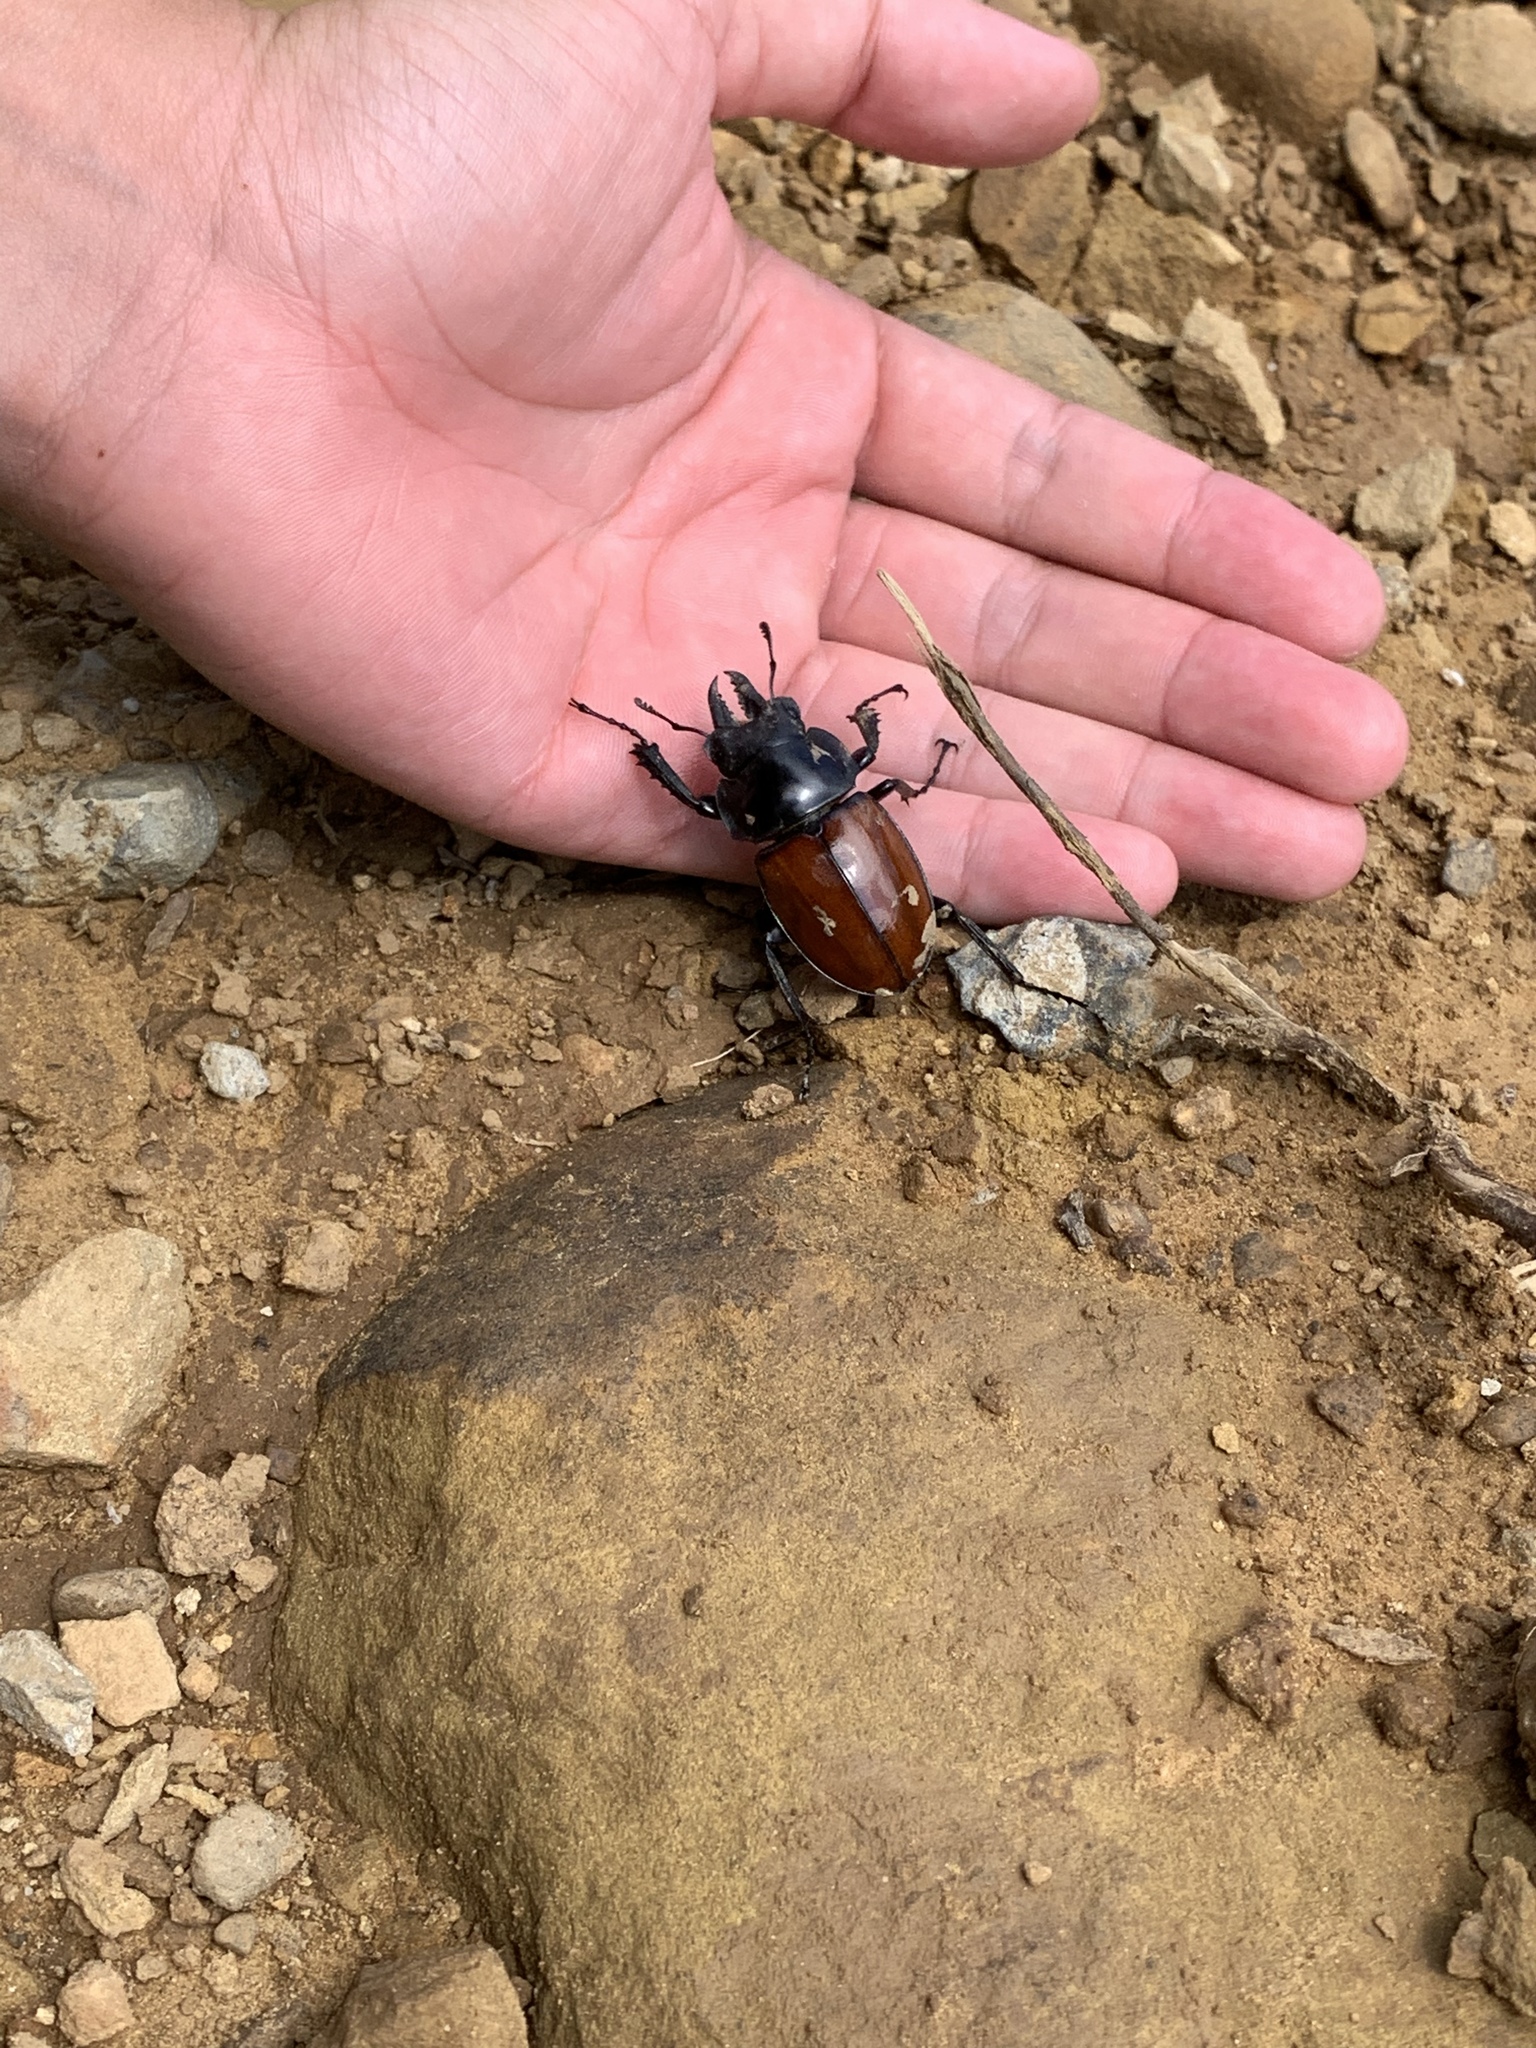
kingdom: Animalia
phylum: Arthropoda
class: Insecta
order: Coleoptera
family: Lucanidae
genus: Neolucanus
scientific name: Neolucanus swinhoei
